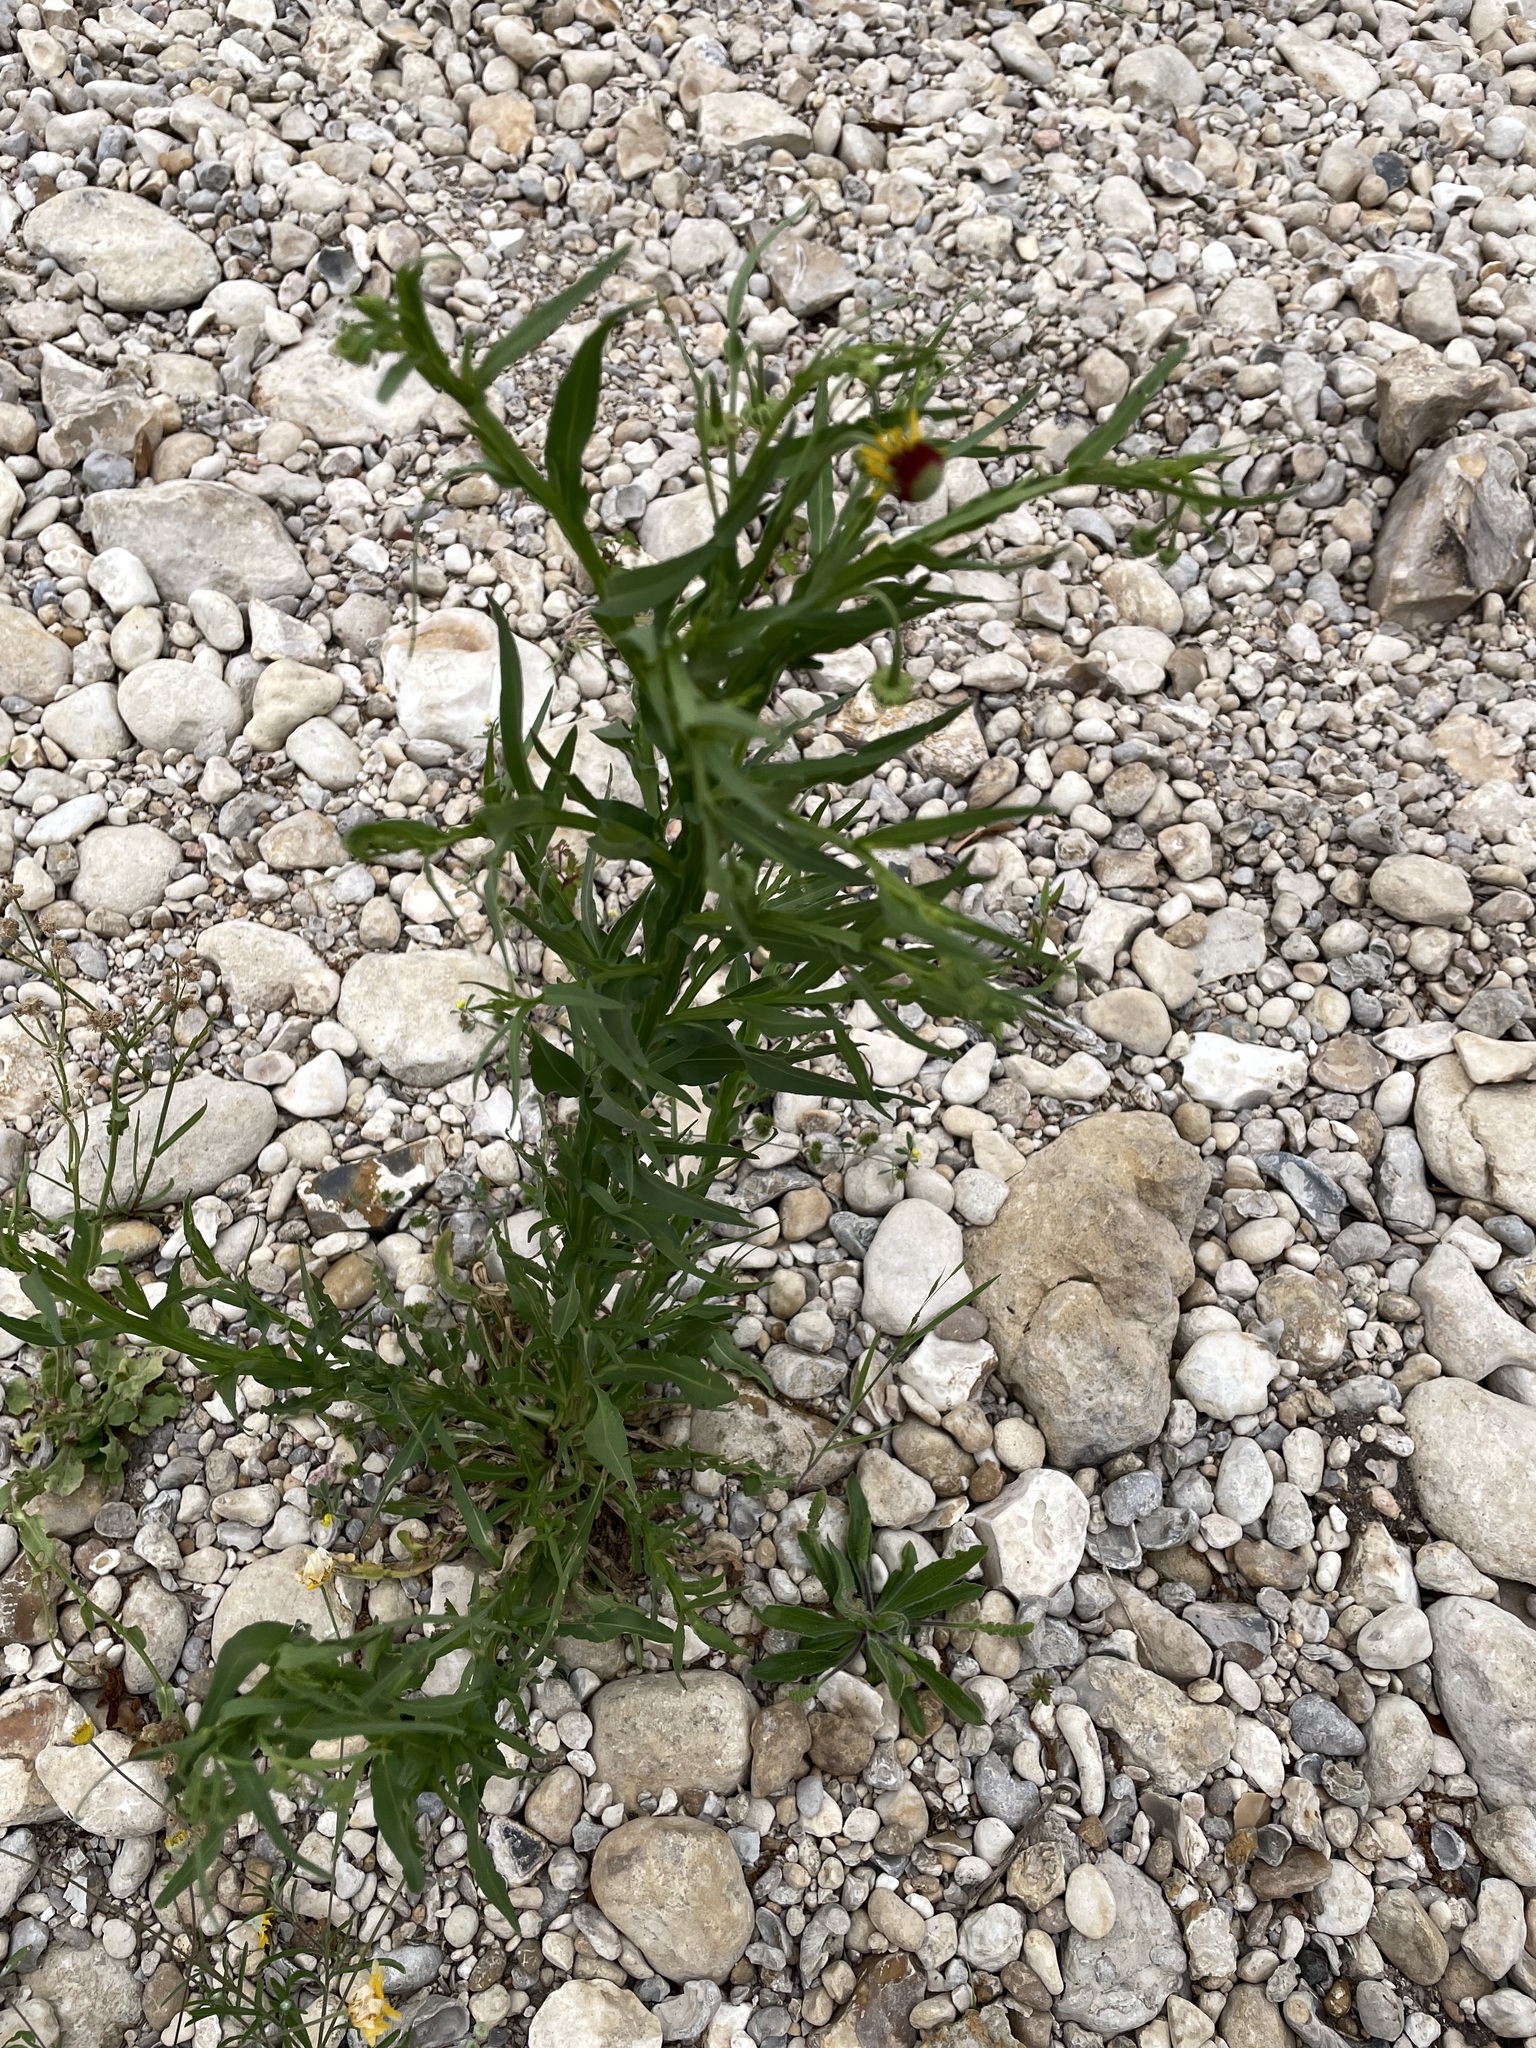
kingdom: Plantae
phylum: Tracheophyta
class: Magnoliopsida
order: Asterales
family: Asteraceae
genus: Helenium
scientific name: Helenium elegans
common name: Pretty sneezeweed
